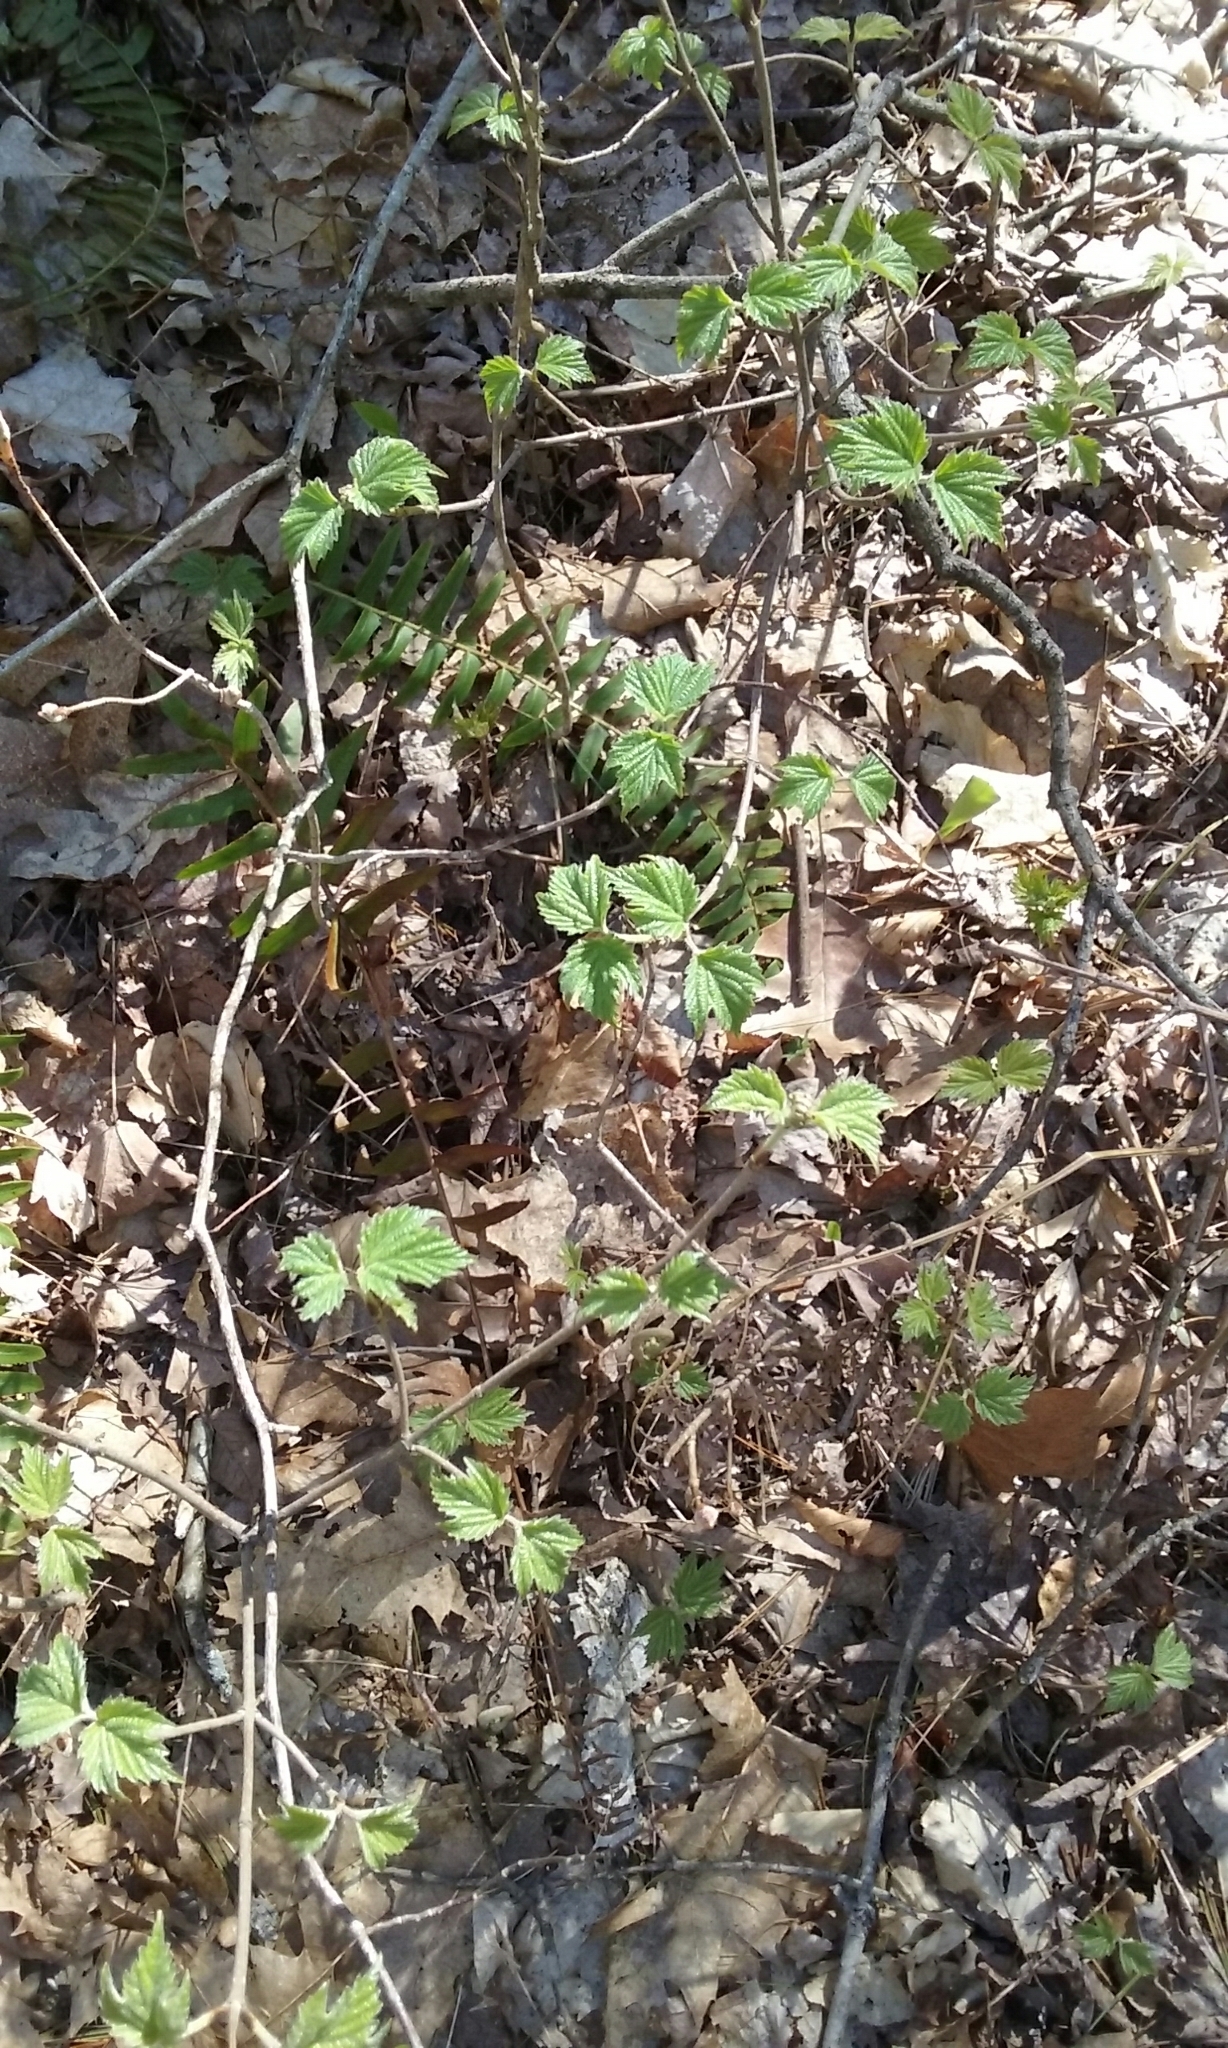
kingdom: Plantae
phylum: Tracheophyta
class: Magnoliopsida
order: Dipsacales
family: Viburnaceae
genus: Viburnum
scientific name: Viburnum acerifolium
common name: Dockmackie
